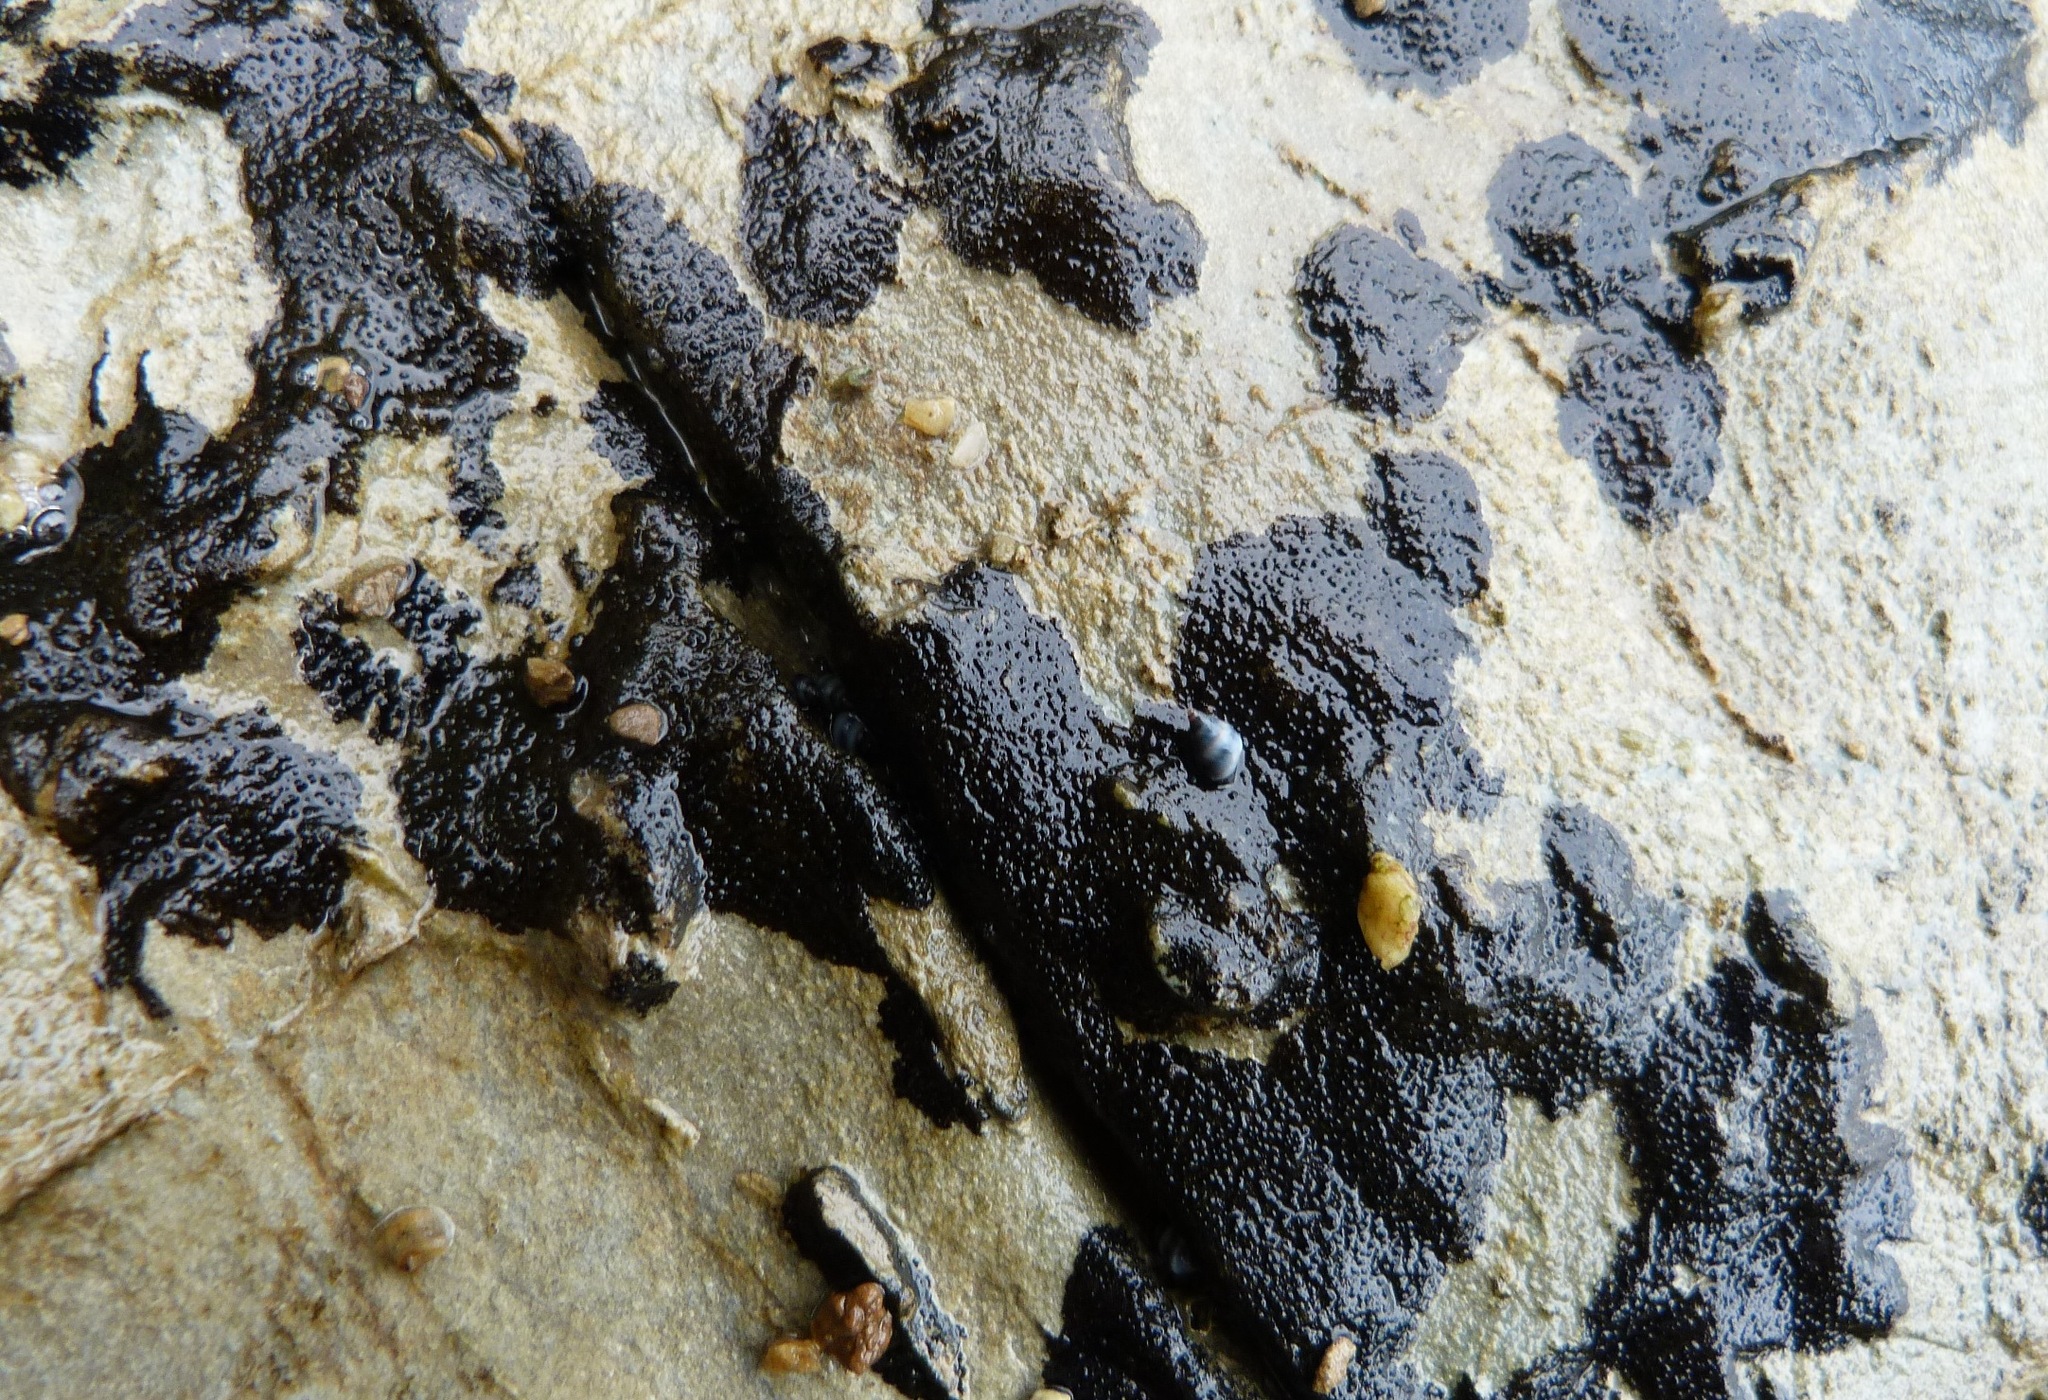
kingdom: Fungi
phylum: Ascomycota
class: Eurotiomycetes
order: Verrucariales
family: Verrucariaceae
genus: Hydropunctaria
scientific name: Hydropunctaria maura
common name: Tar lichen
